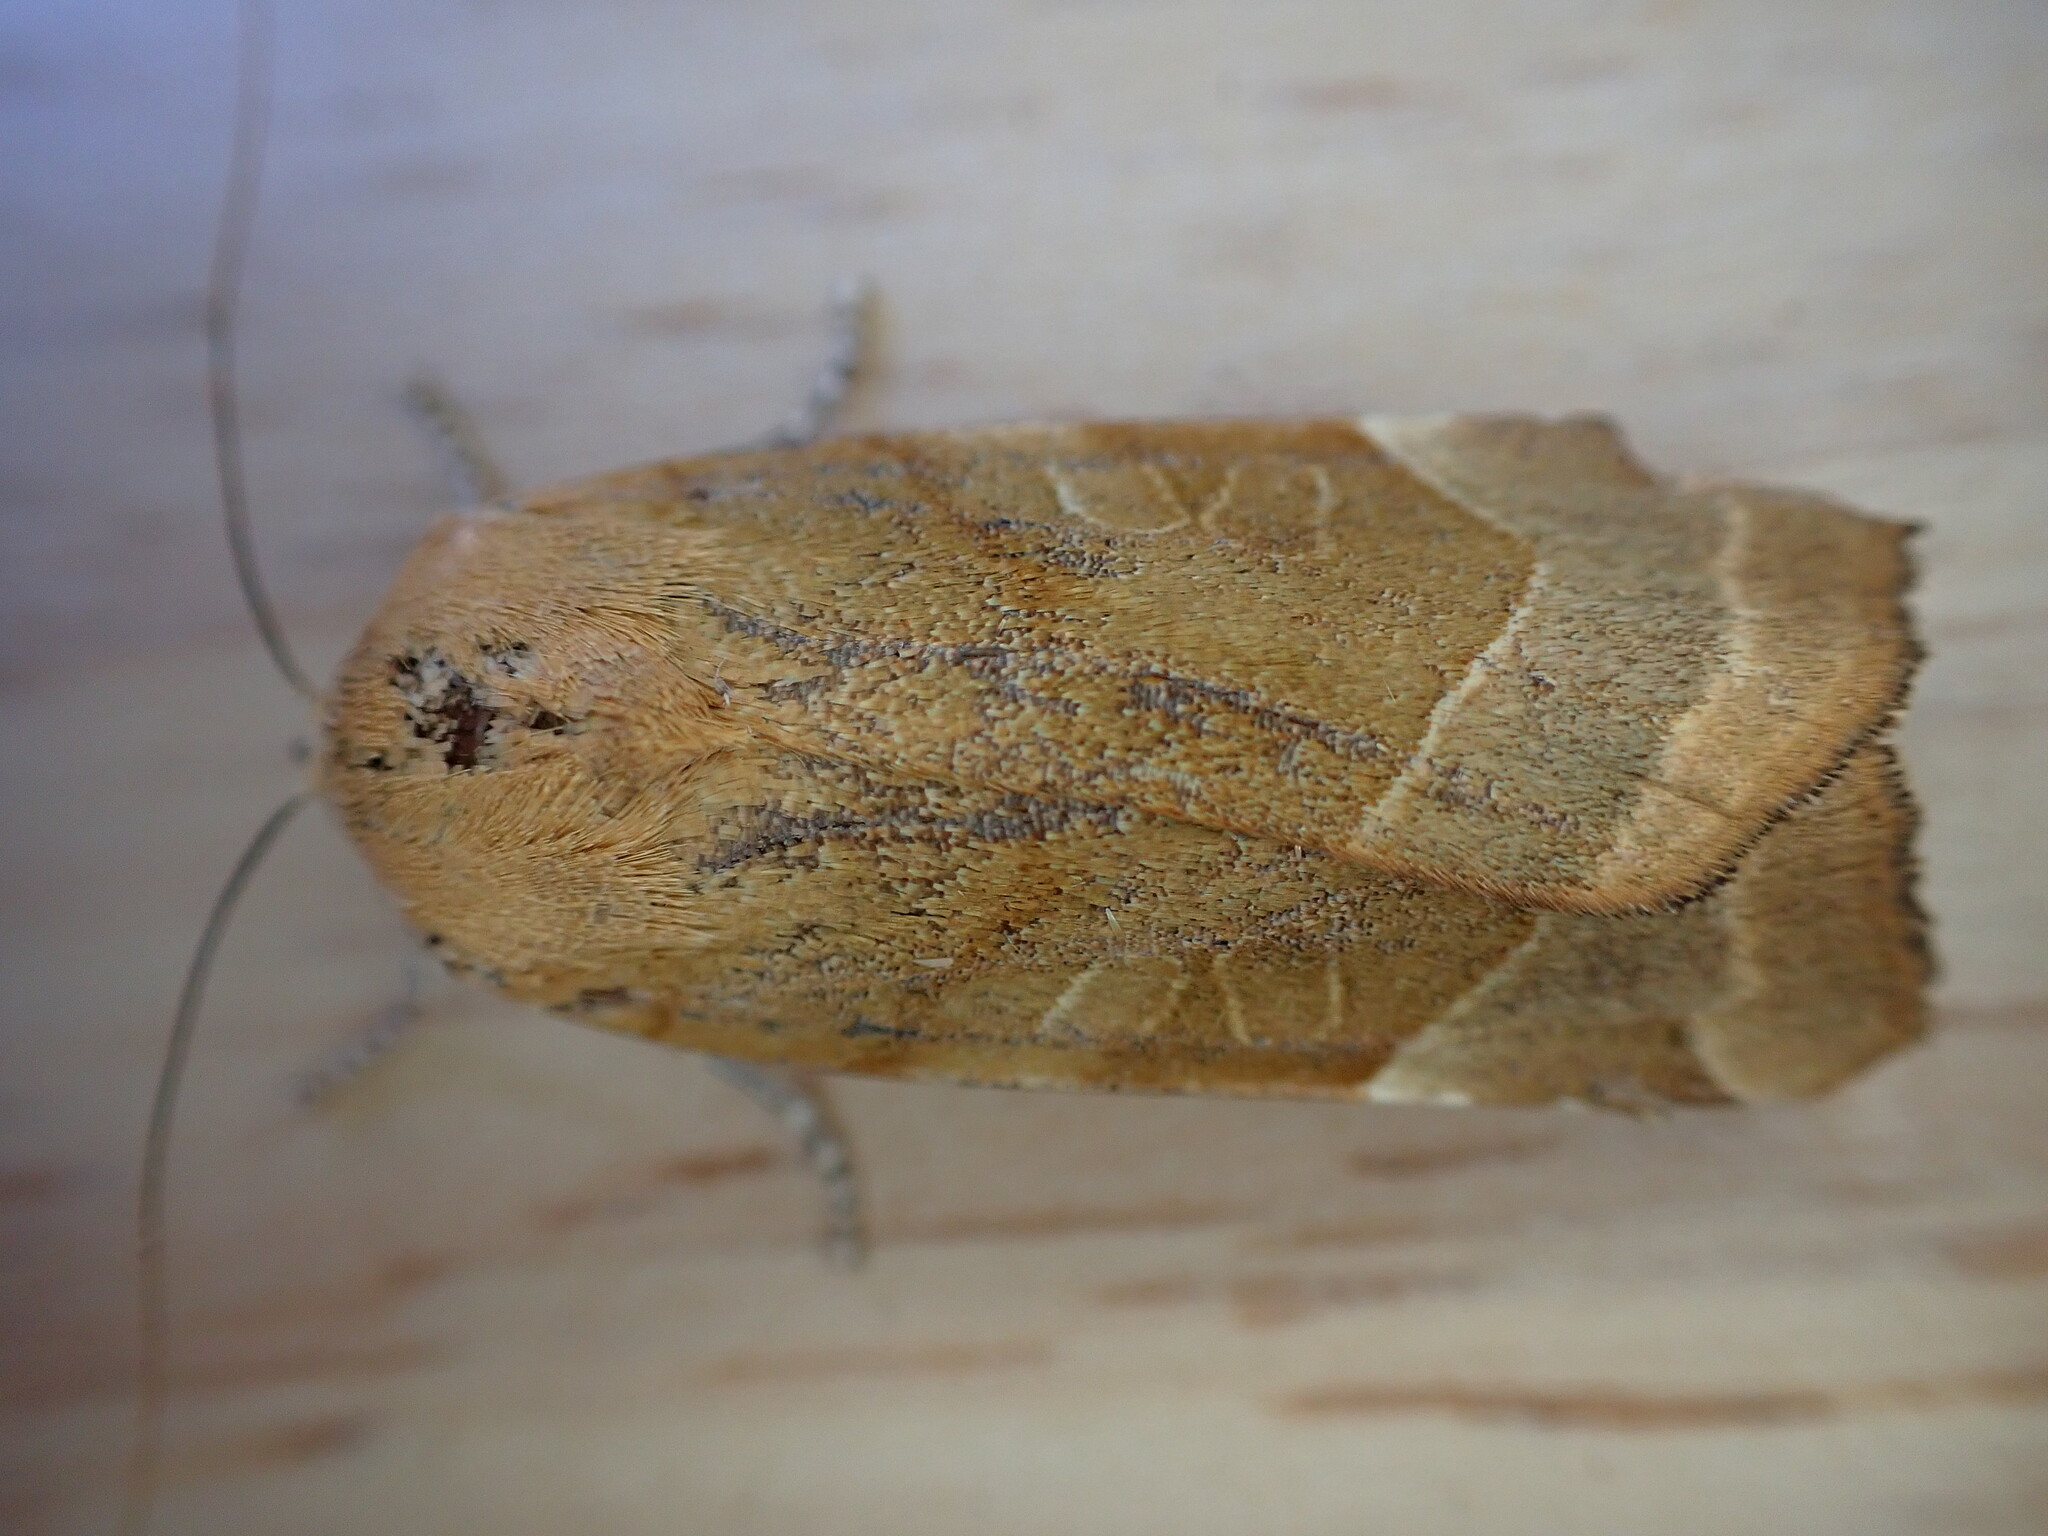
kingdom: Animalia
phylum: Arthropoda
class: Insecta
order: Lepidoptera
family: Noctuidae
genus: Noctua
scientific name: Noctua fimbriata
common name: Broad-bordered yellow underwing
